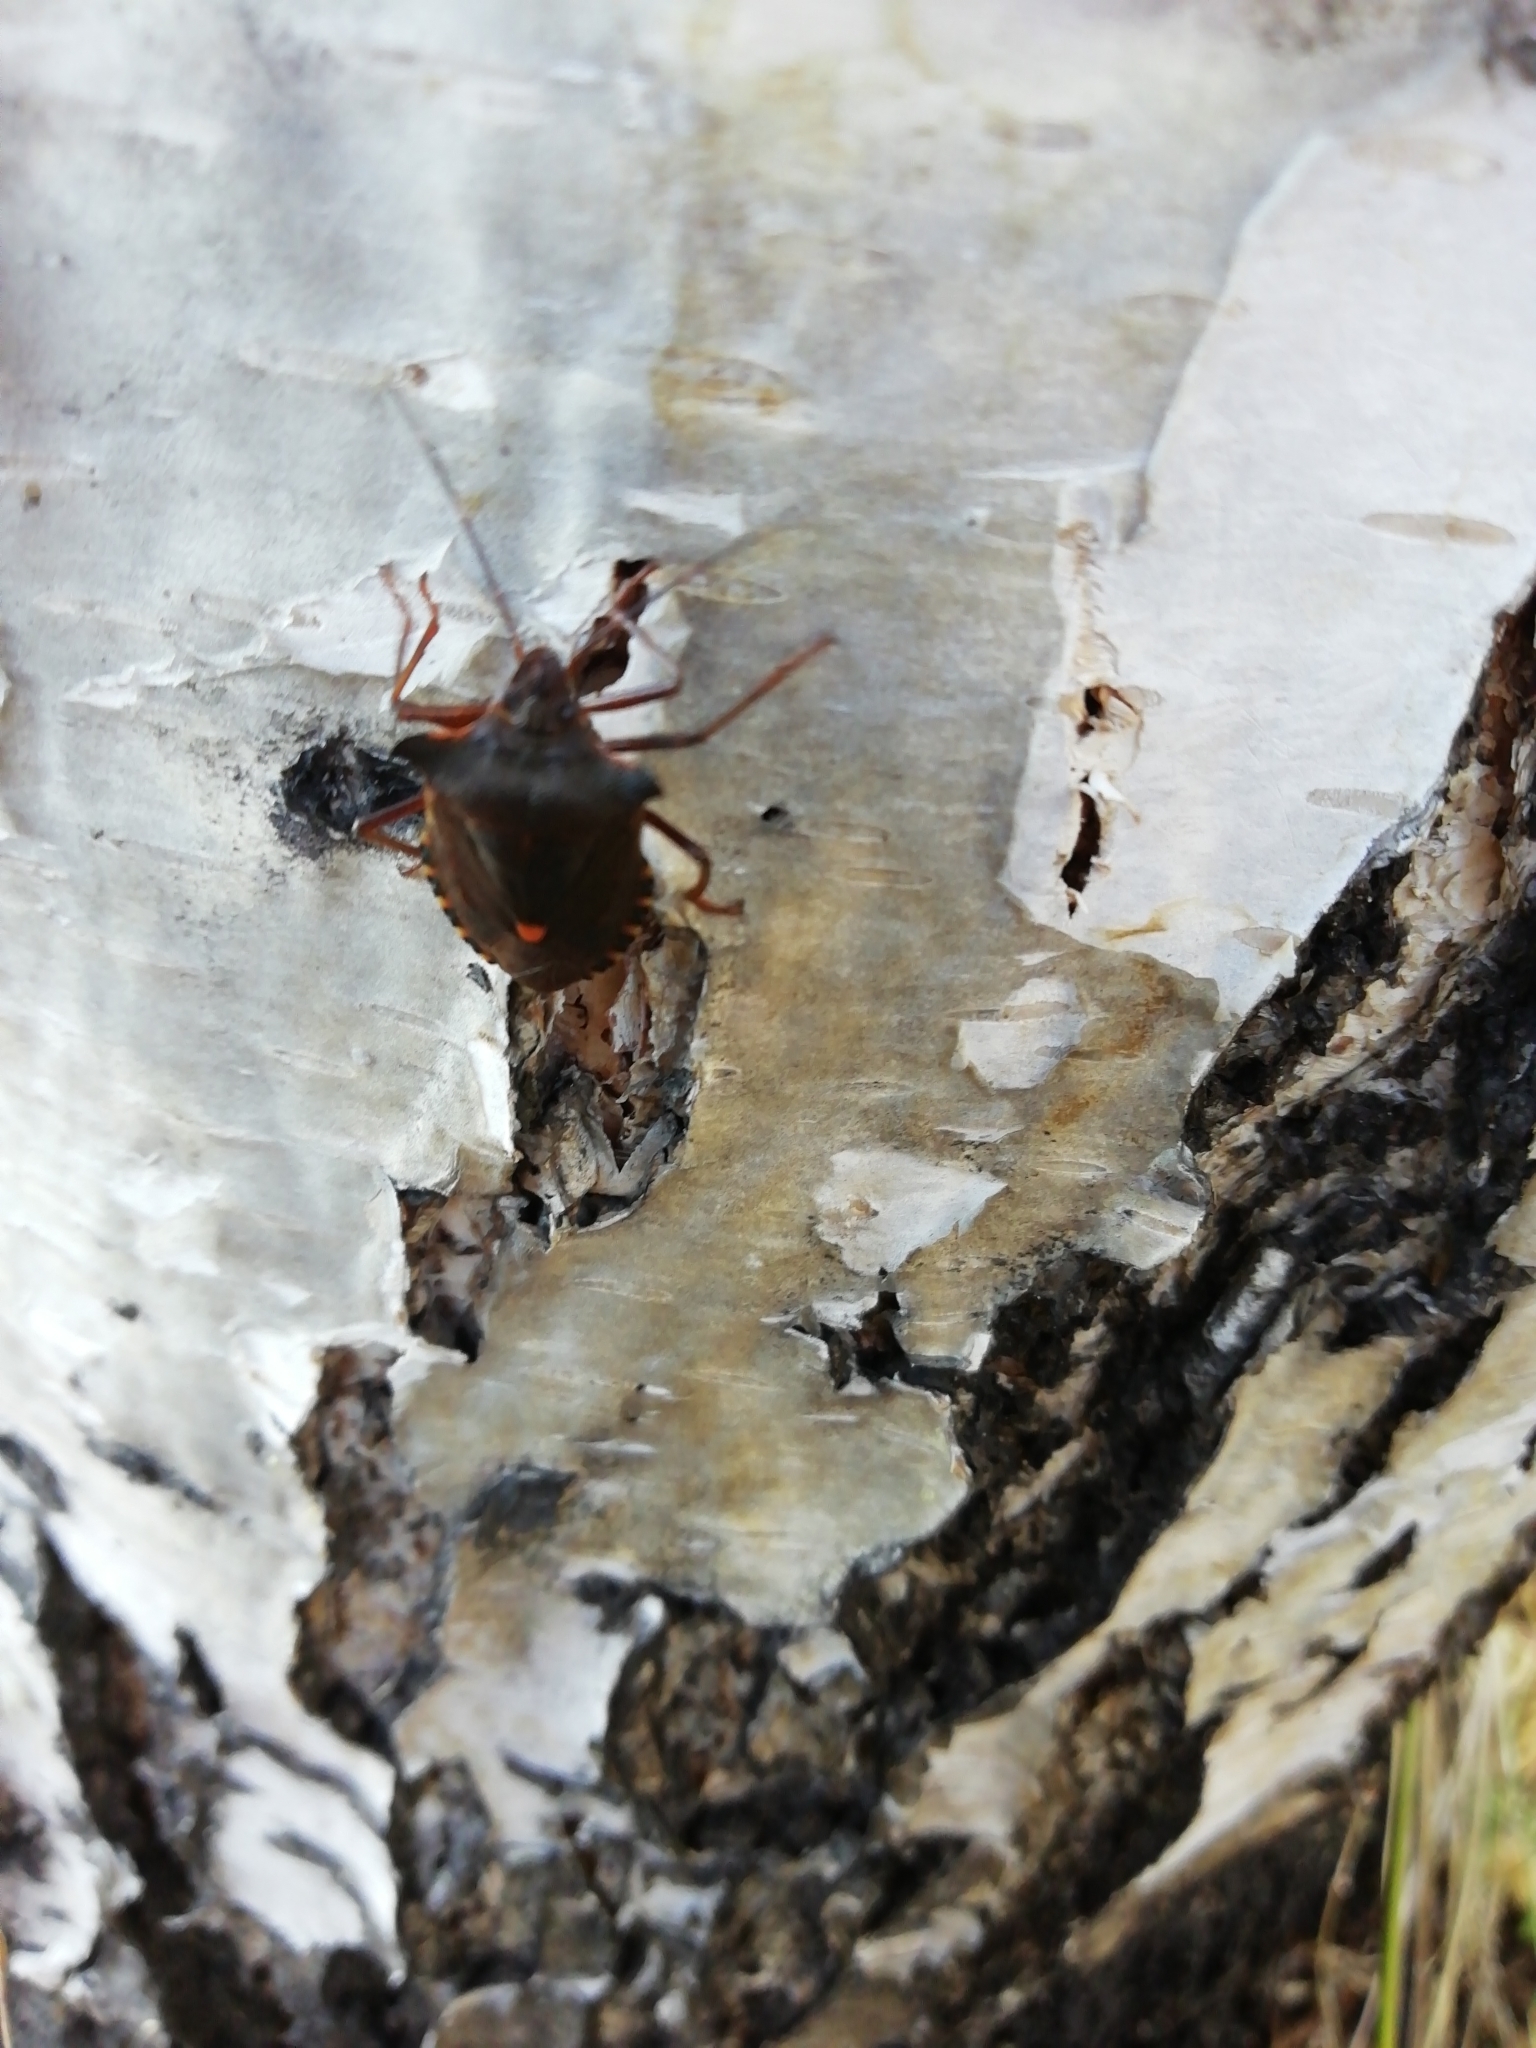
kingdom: Animalia
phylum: Arthropoda
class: Insecta
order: Hemiptera
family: Pentatomidae
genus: Pentatoma
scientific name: Pentatoma rufipes
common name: Forest bug
